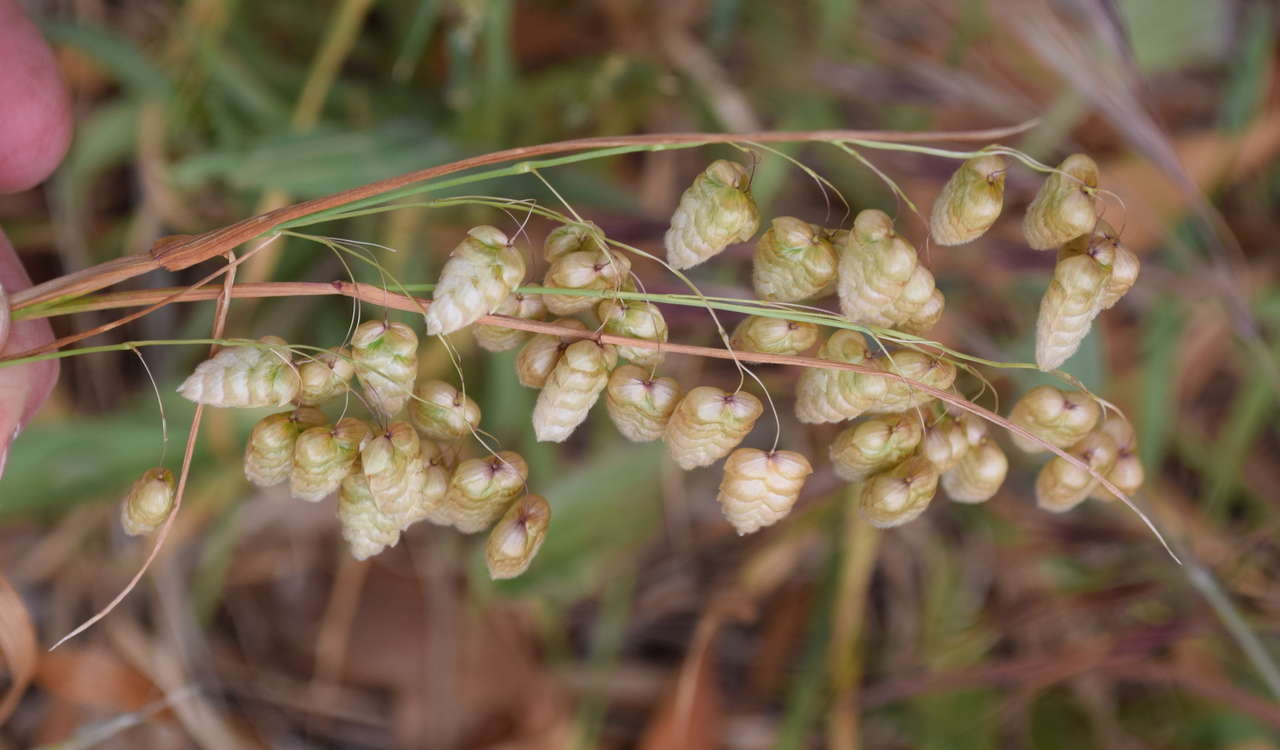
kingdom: Plantae
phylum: Tracheophyta
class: Liliopsida
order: Poales
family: Poaceae
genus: Briza
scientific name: Briza maxima
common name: Big quakinggrass
